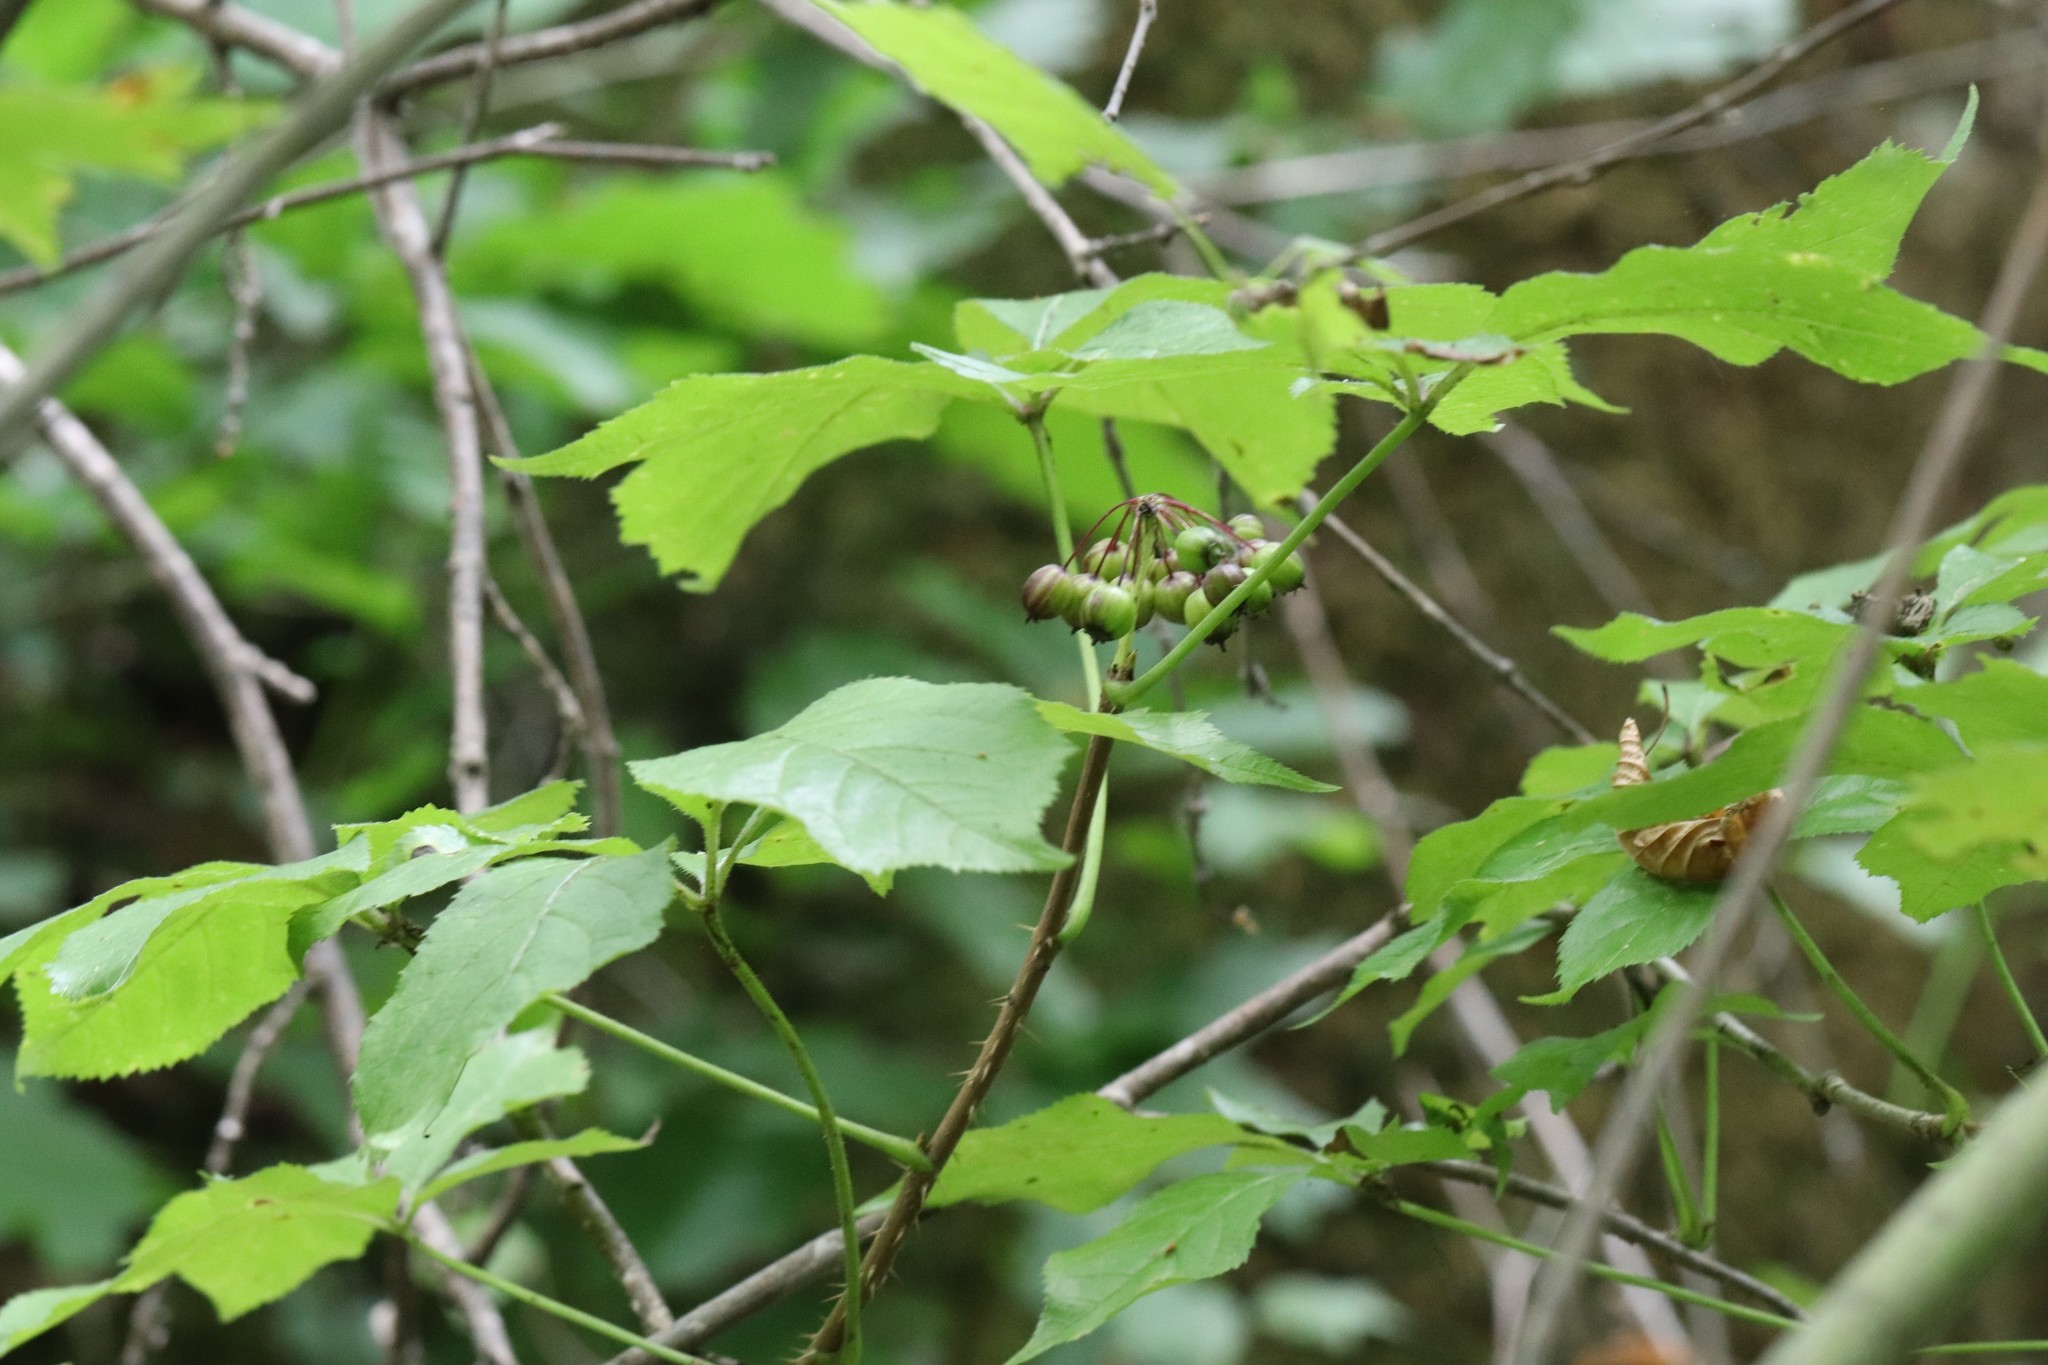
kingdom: Plantae
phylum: Tracheophyta
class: Magnoliopsida
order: Apiales
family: Araliaceae
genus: Eleutherococcus
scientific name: Eleutherococcus senticosus
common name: Siberian-ginseng
